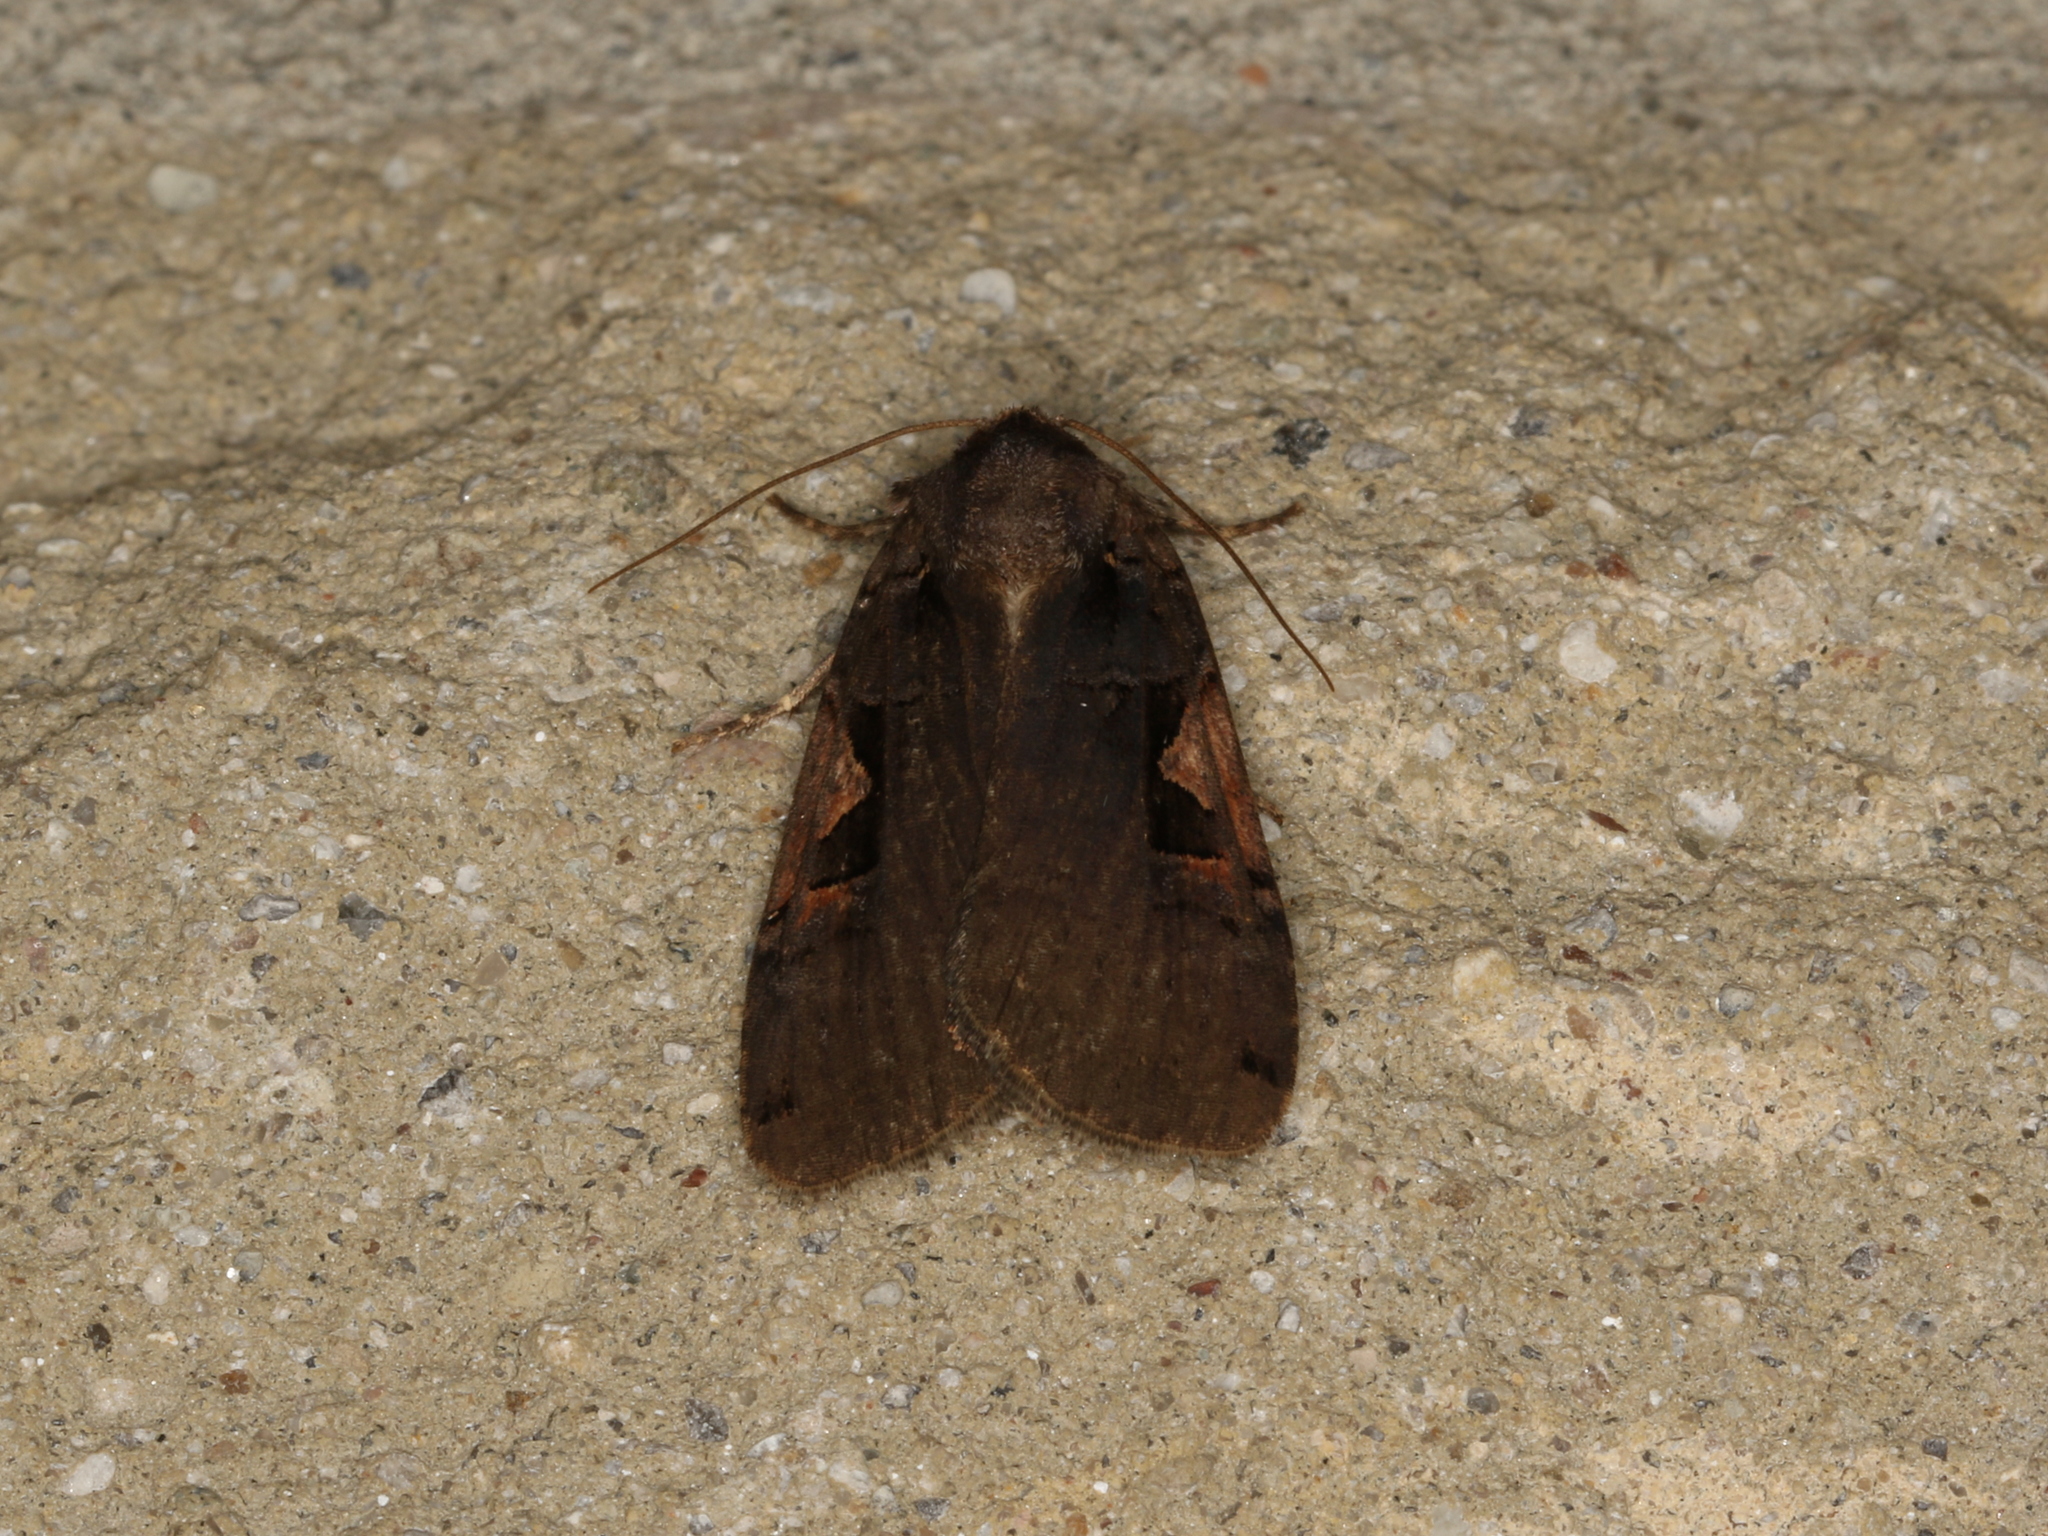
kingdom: Animalia
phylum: Arthropoda
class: Insecta
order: Lepidoptera
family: Noctuidae
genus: Xestia
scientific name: Xestia
